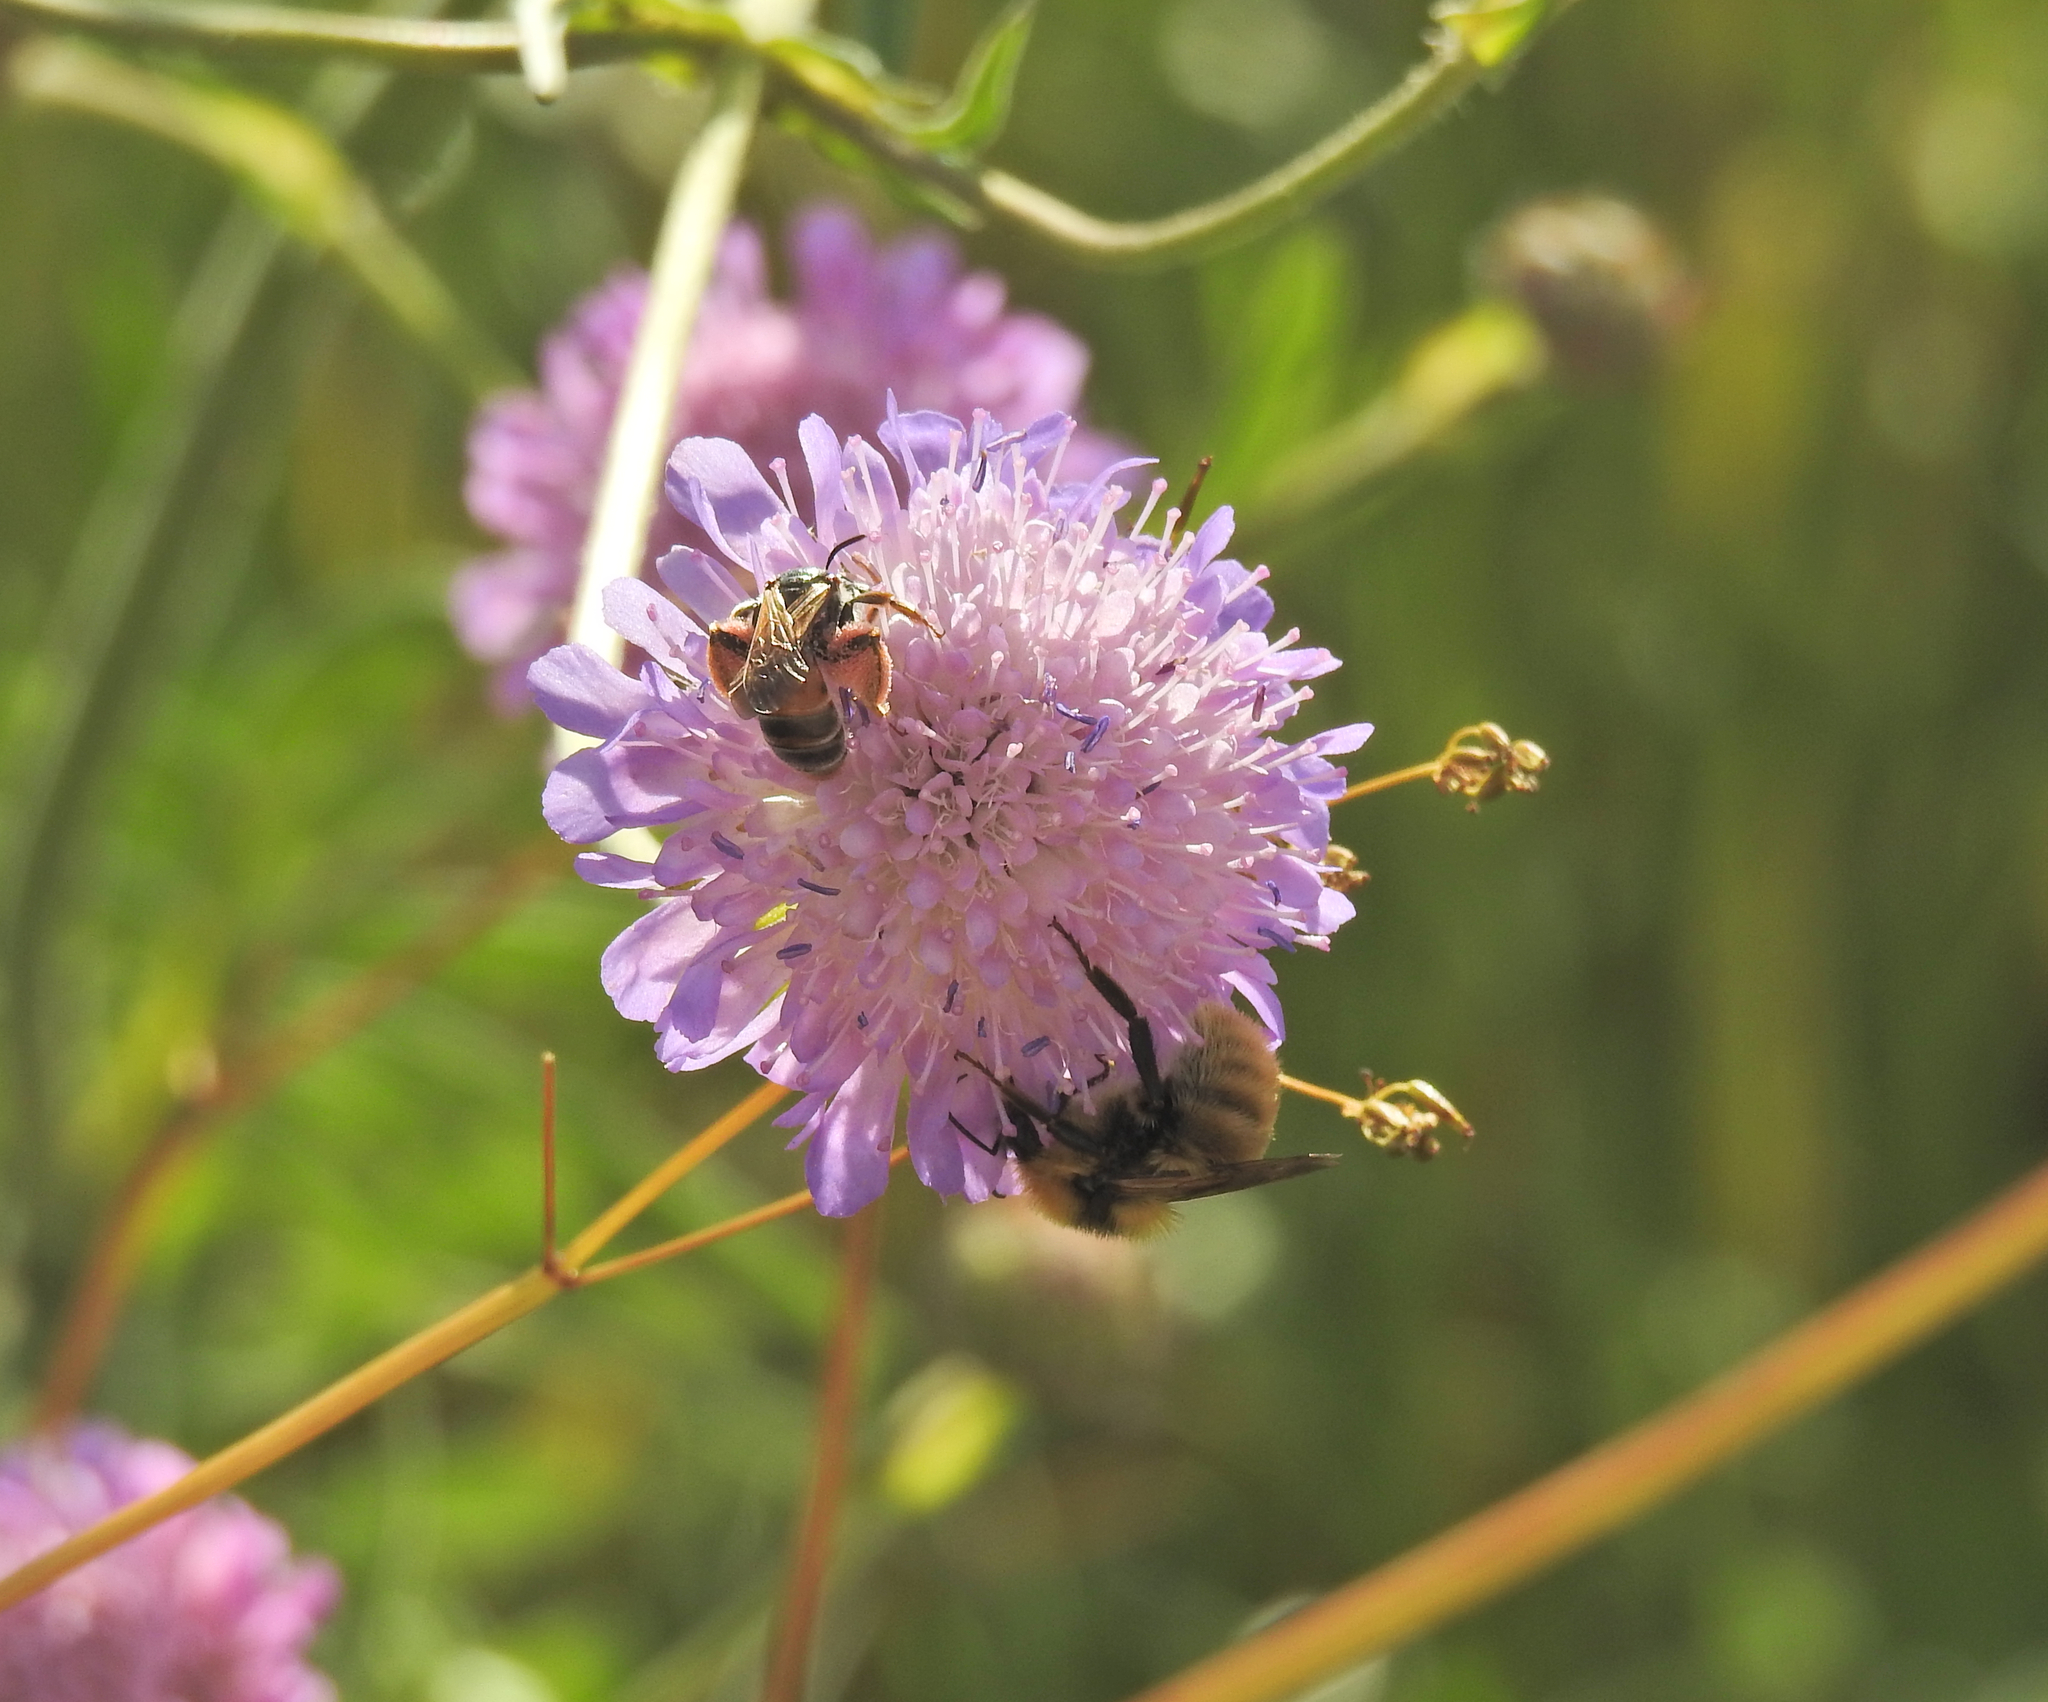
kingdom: Animalia
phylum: Arthropoda
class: Insecta
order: Hymenoptera
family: Apidae
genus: Bombus
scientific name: Bombus distinguendus
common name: Great yellow humble-bee
